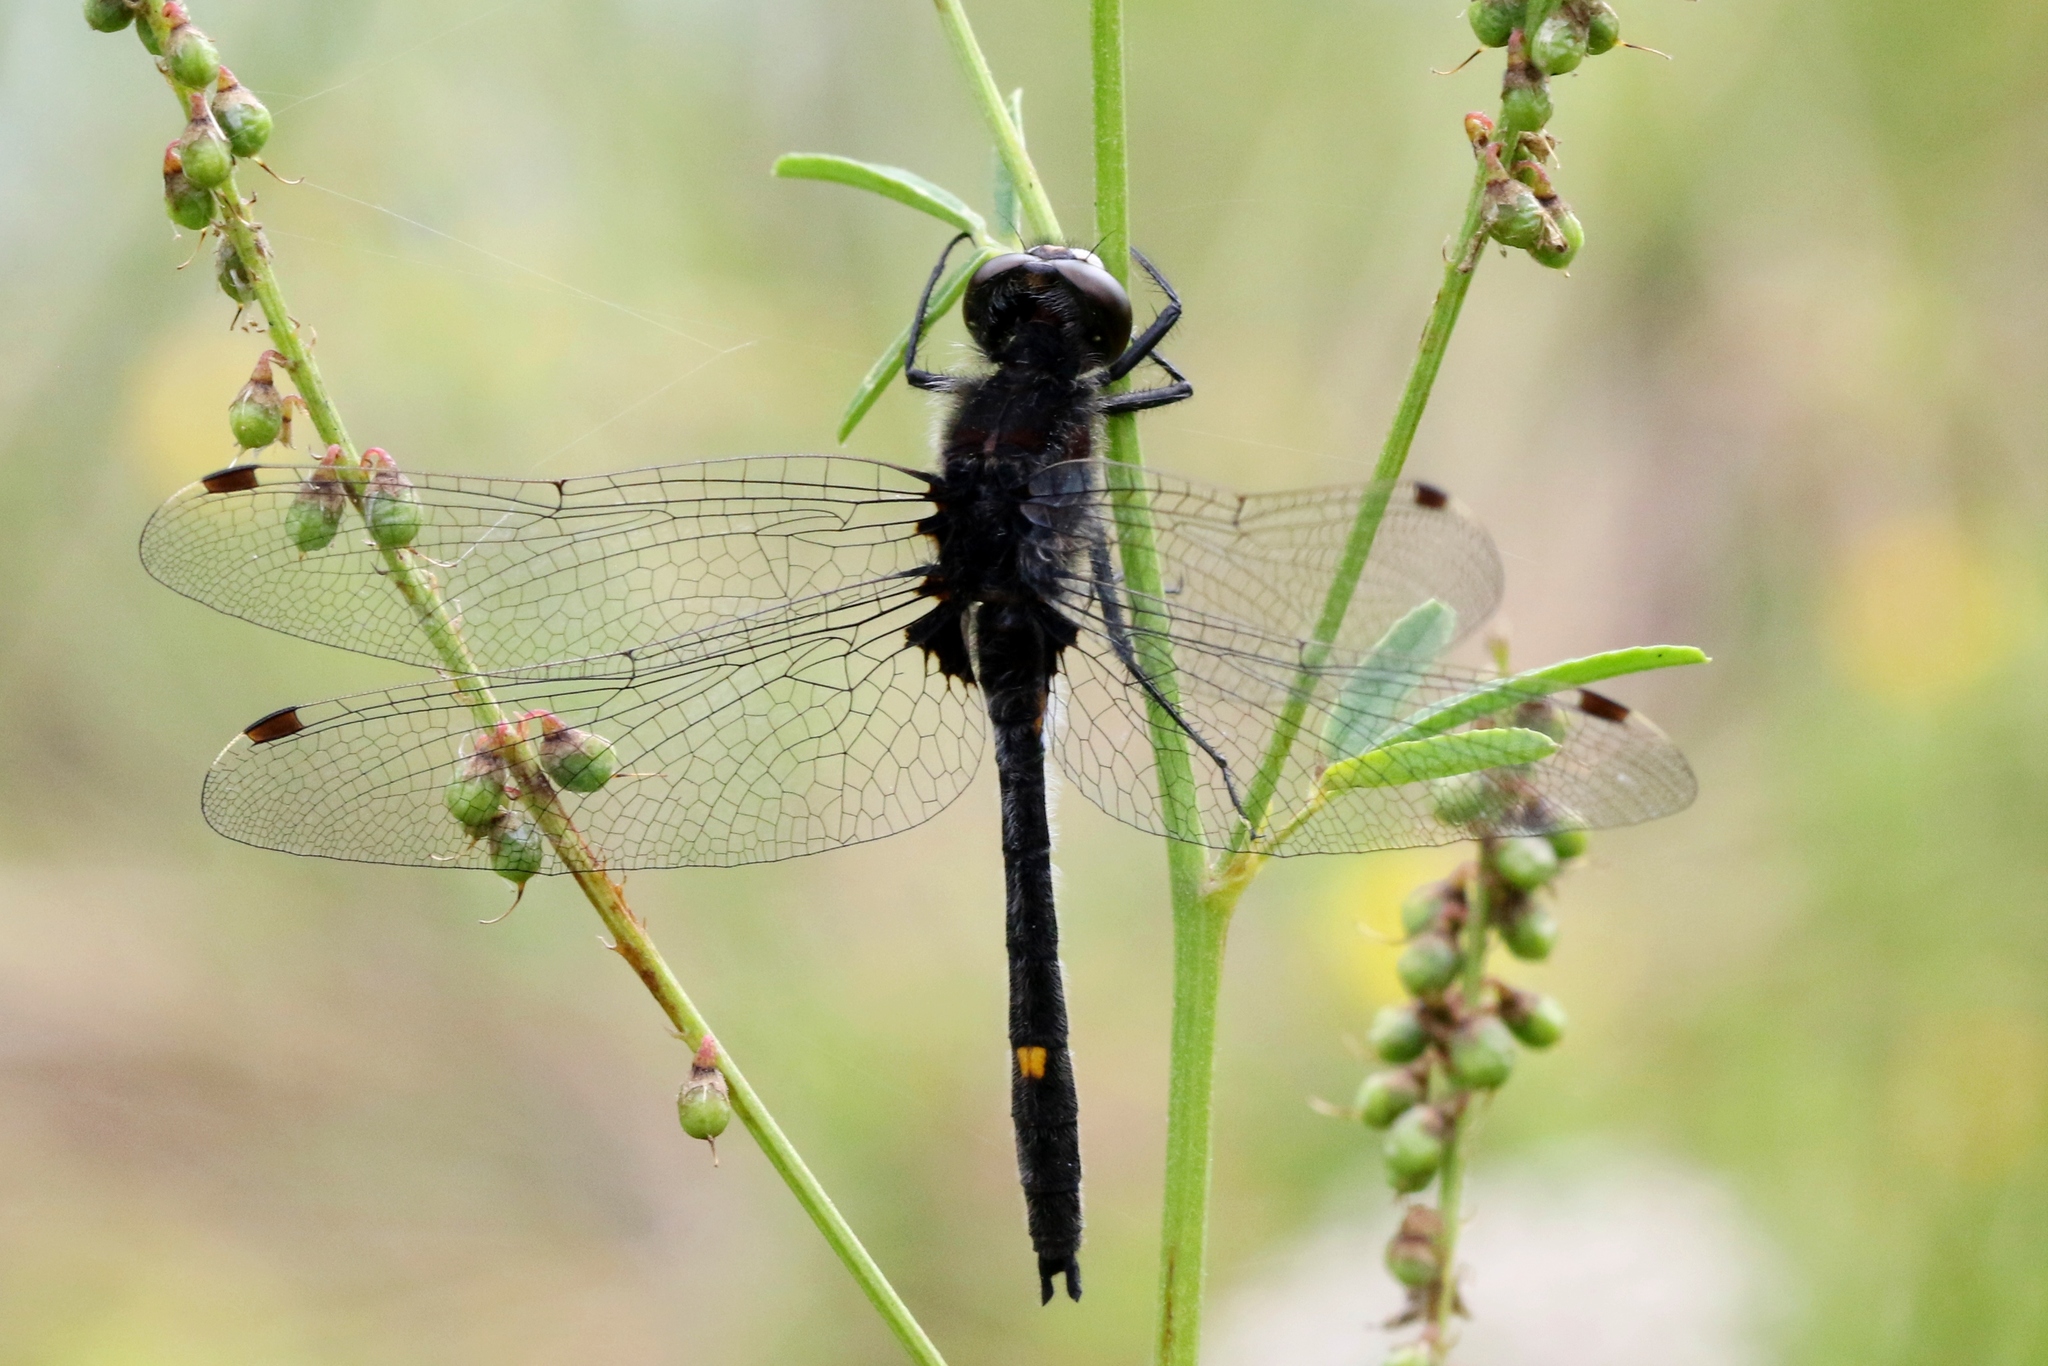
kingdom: Animalia
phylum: Arthropoda
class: Insecta
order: Odonata
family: Libellulidae
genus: Leucorrhinia
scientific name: Leucorrhinia intacta
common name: Dot-tailed whiteface
